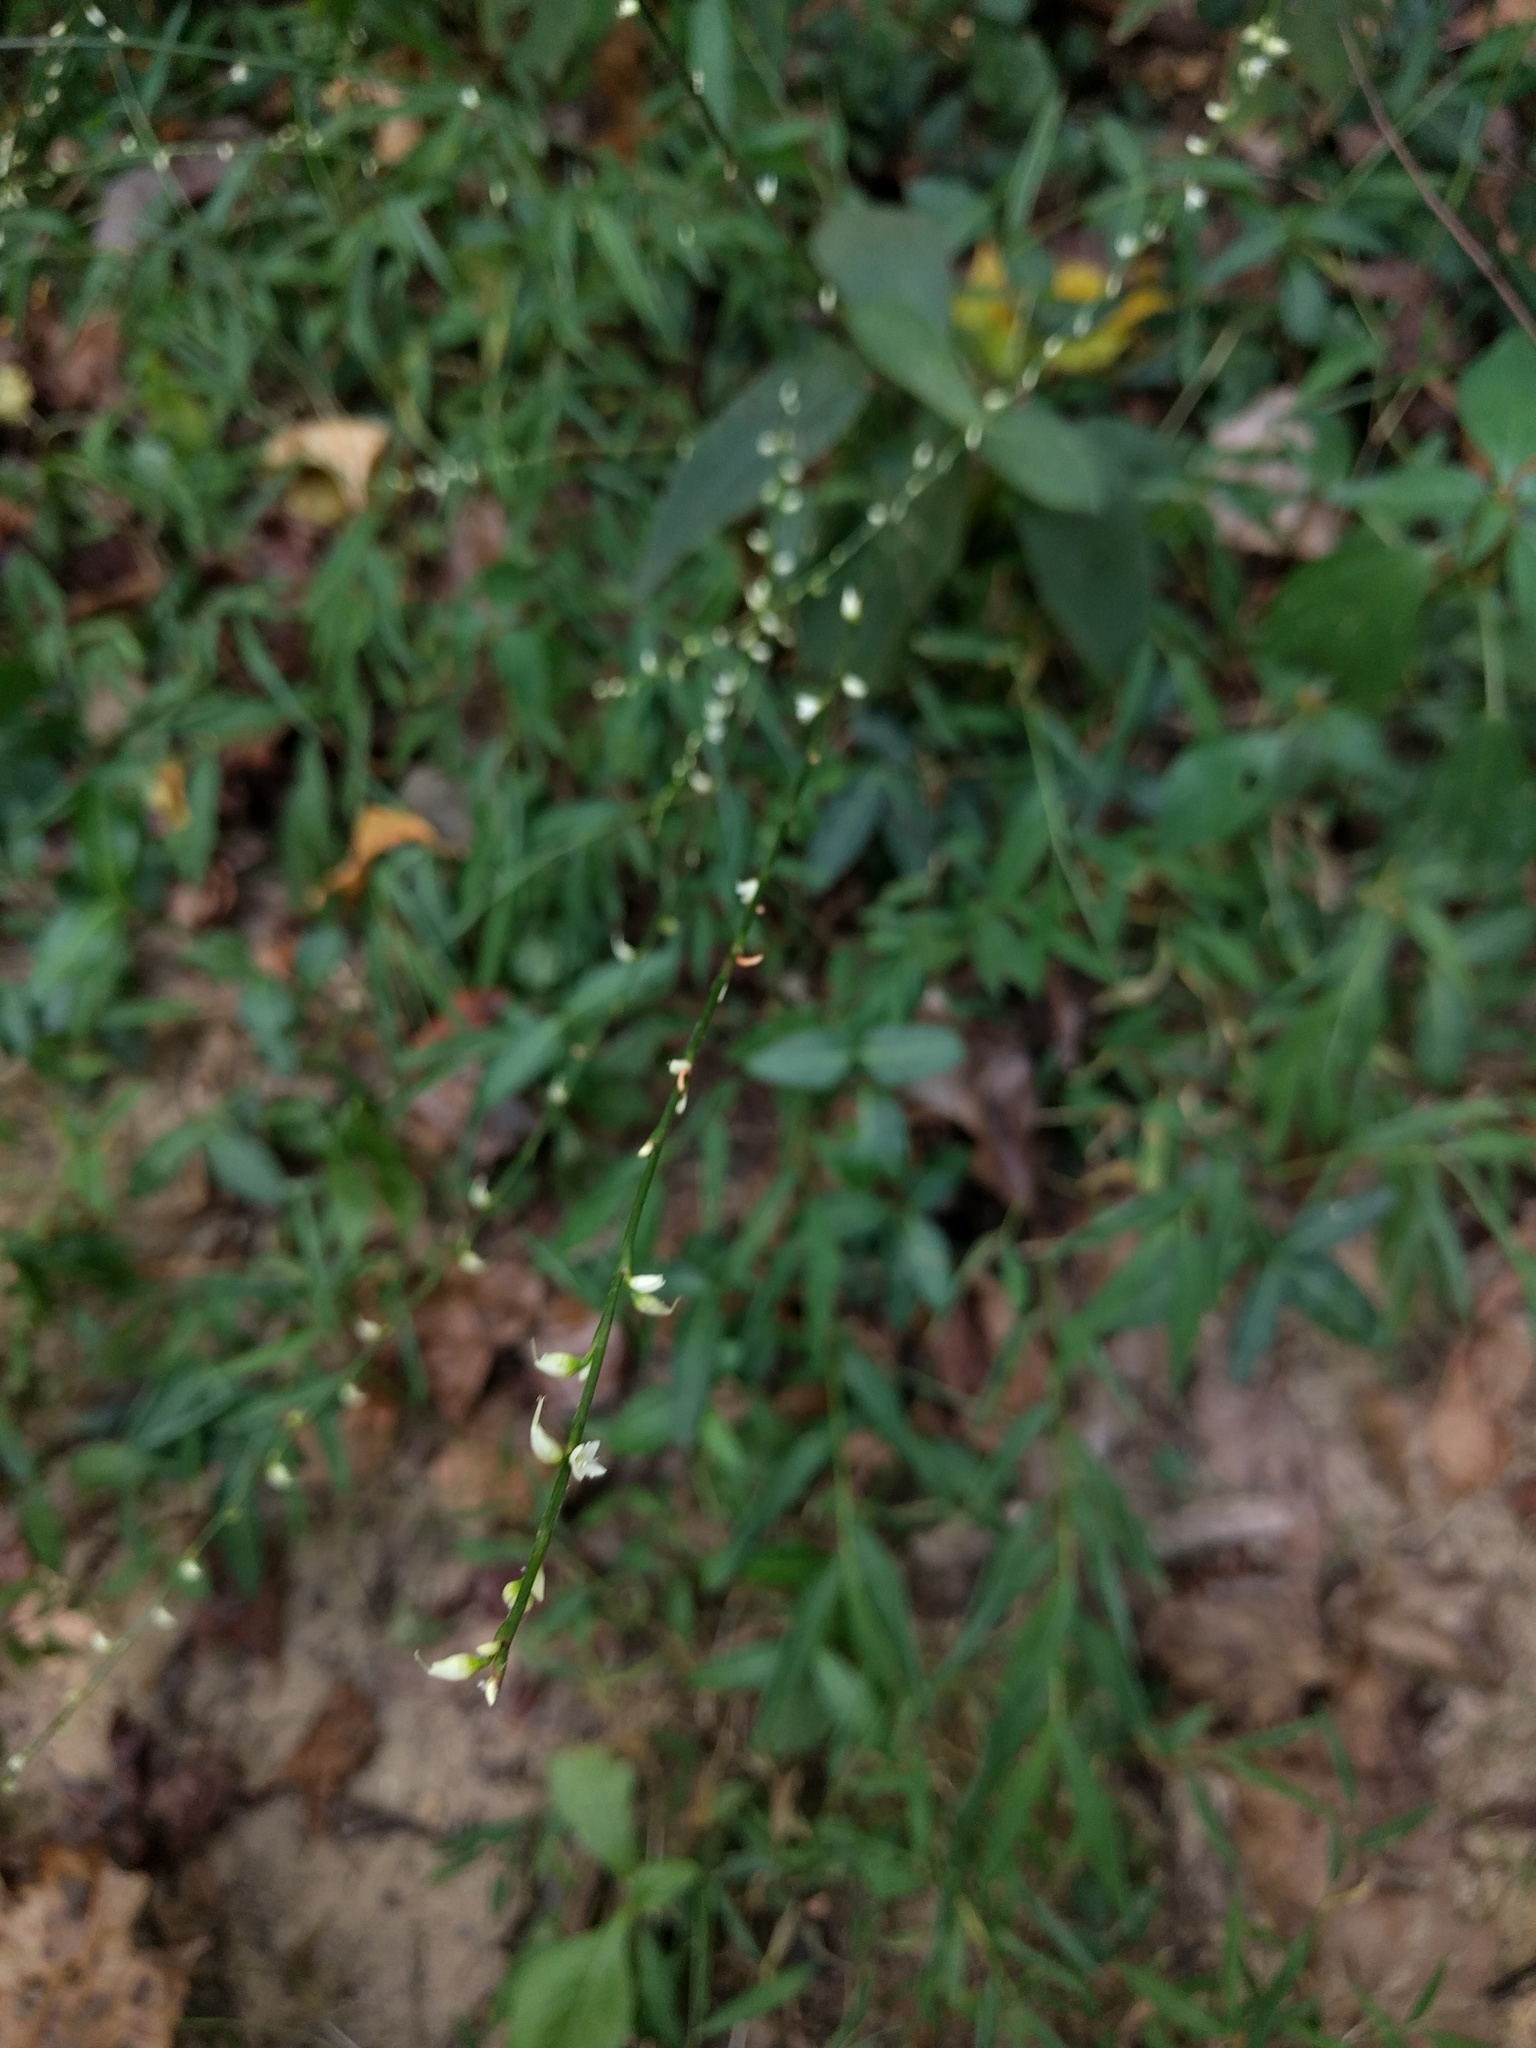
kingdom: Plantae
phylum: Tracheophyta
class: Magnoliopsida
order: Caryophyllales
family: Polygonaceae
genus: Persicaria
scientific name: Persicaria virginiana
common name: Jumpseed
